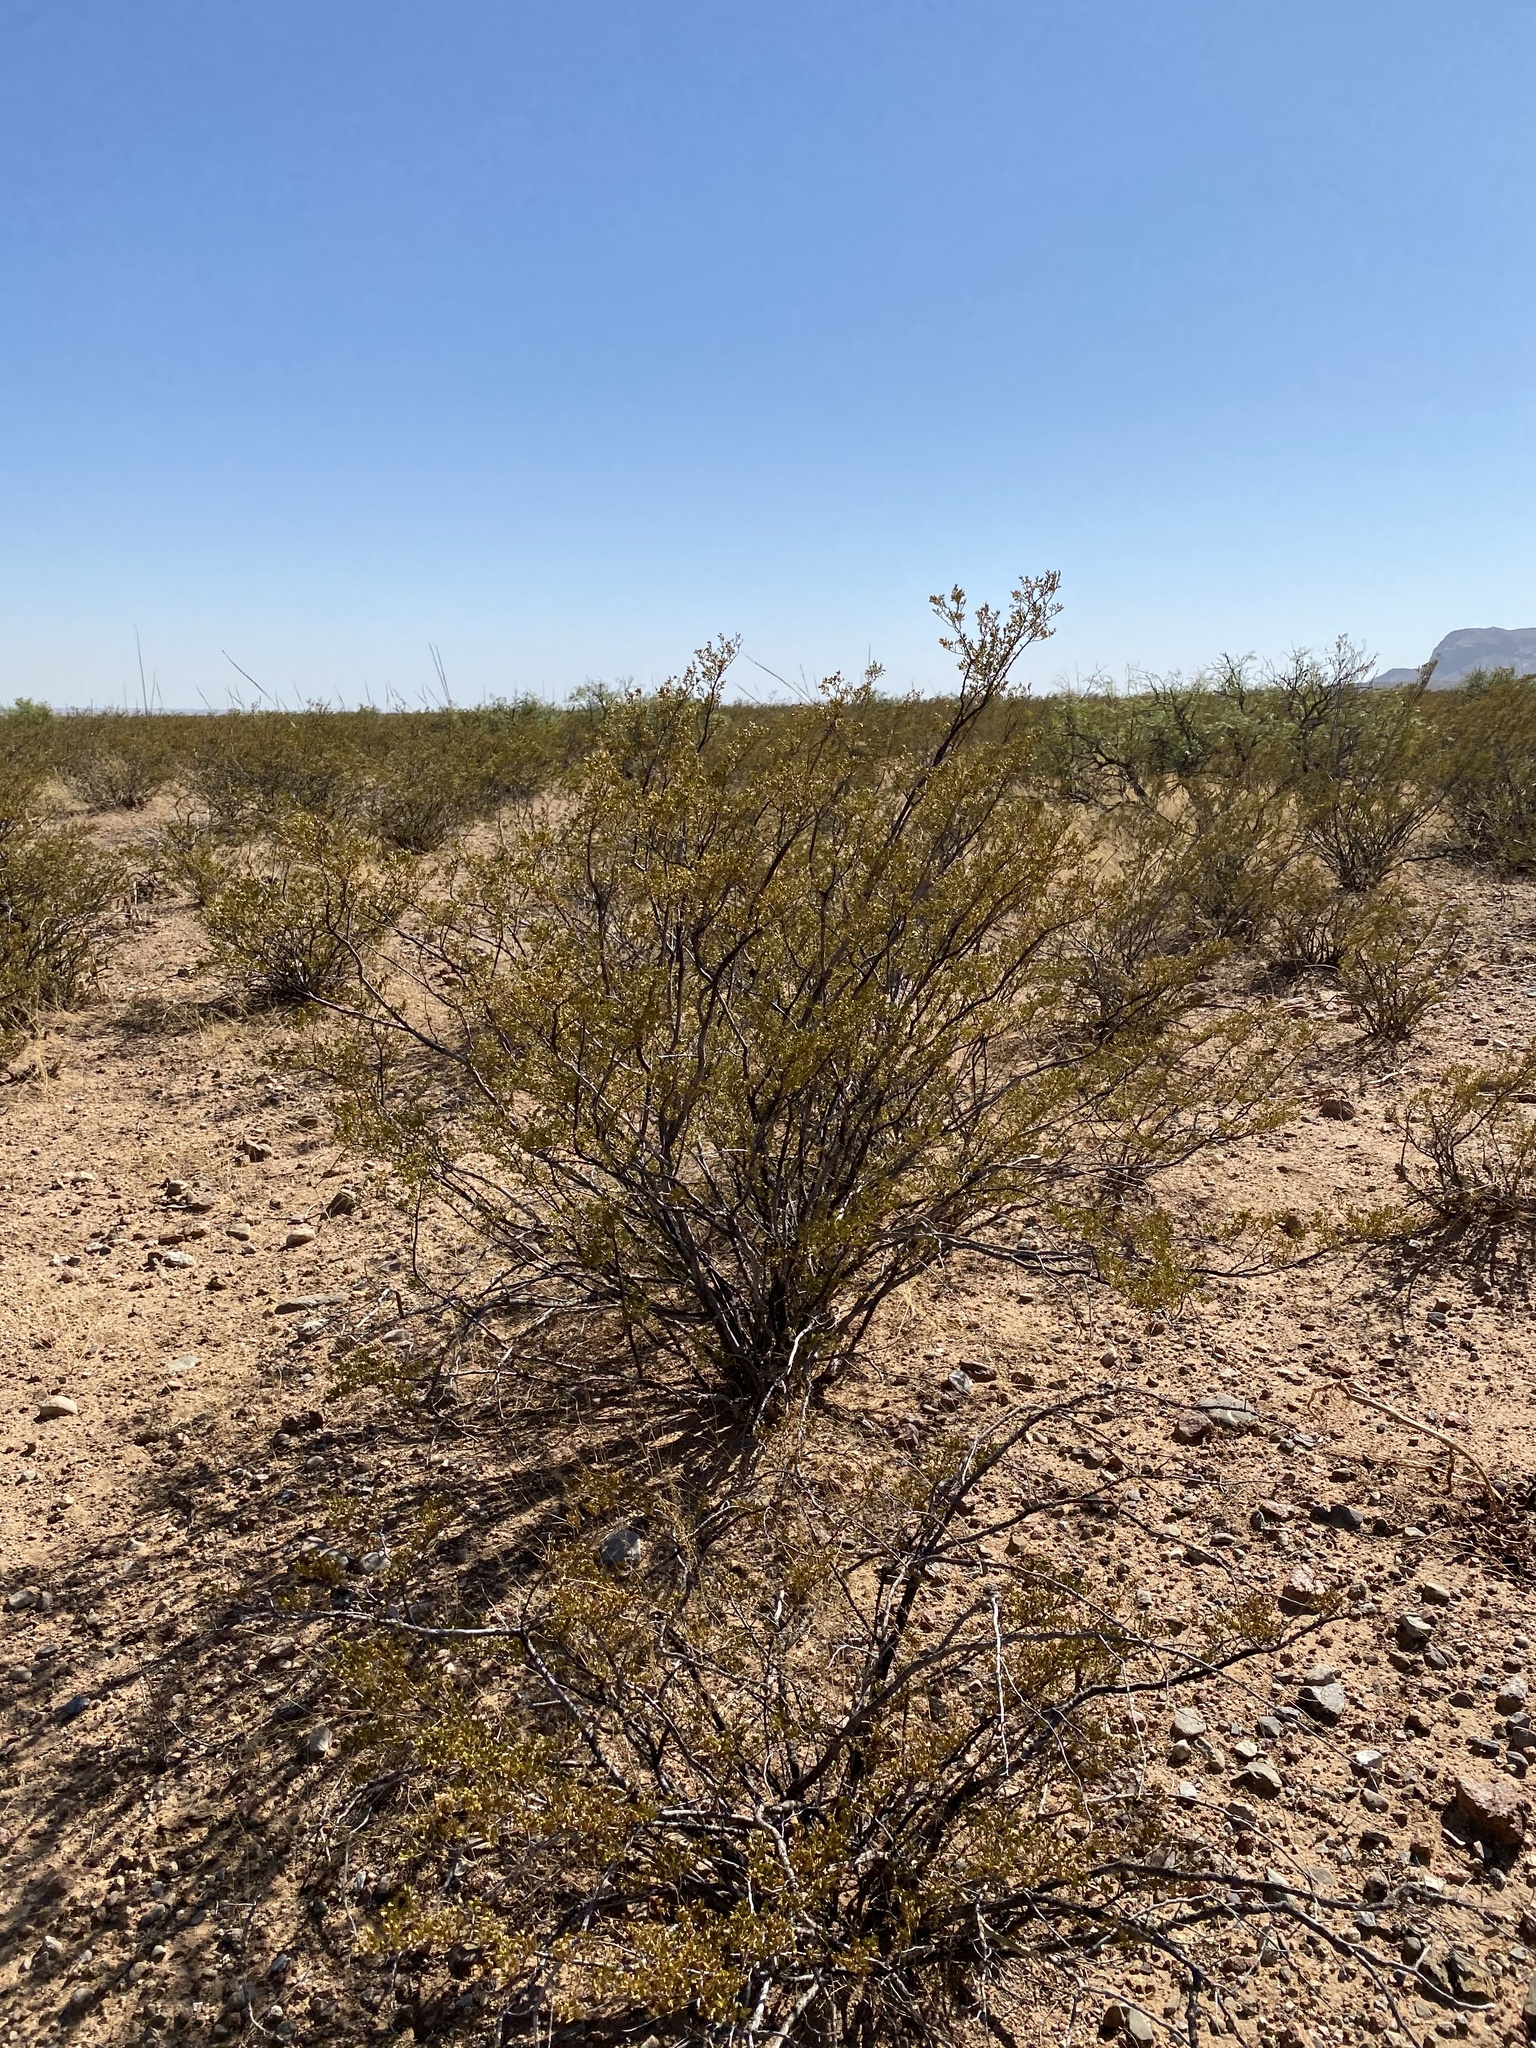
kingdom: Plantae
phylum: Tracheophyta
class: Magnoliopsida
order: Zygophyllales
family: Zygophyllaceae
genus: Larrea
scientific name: Larrea tridentata
